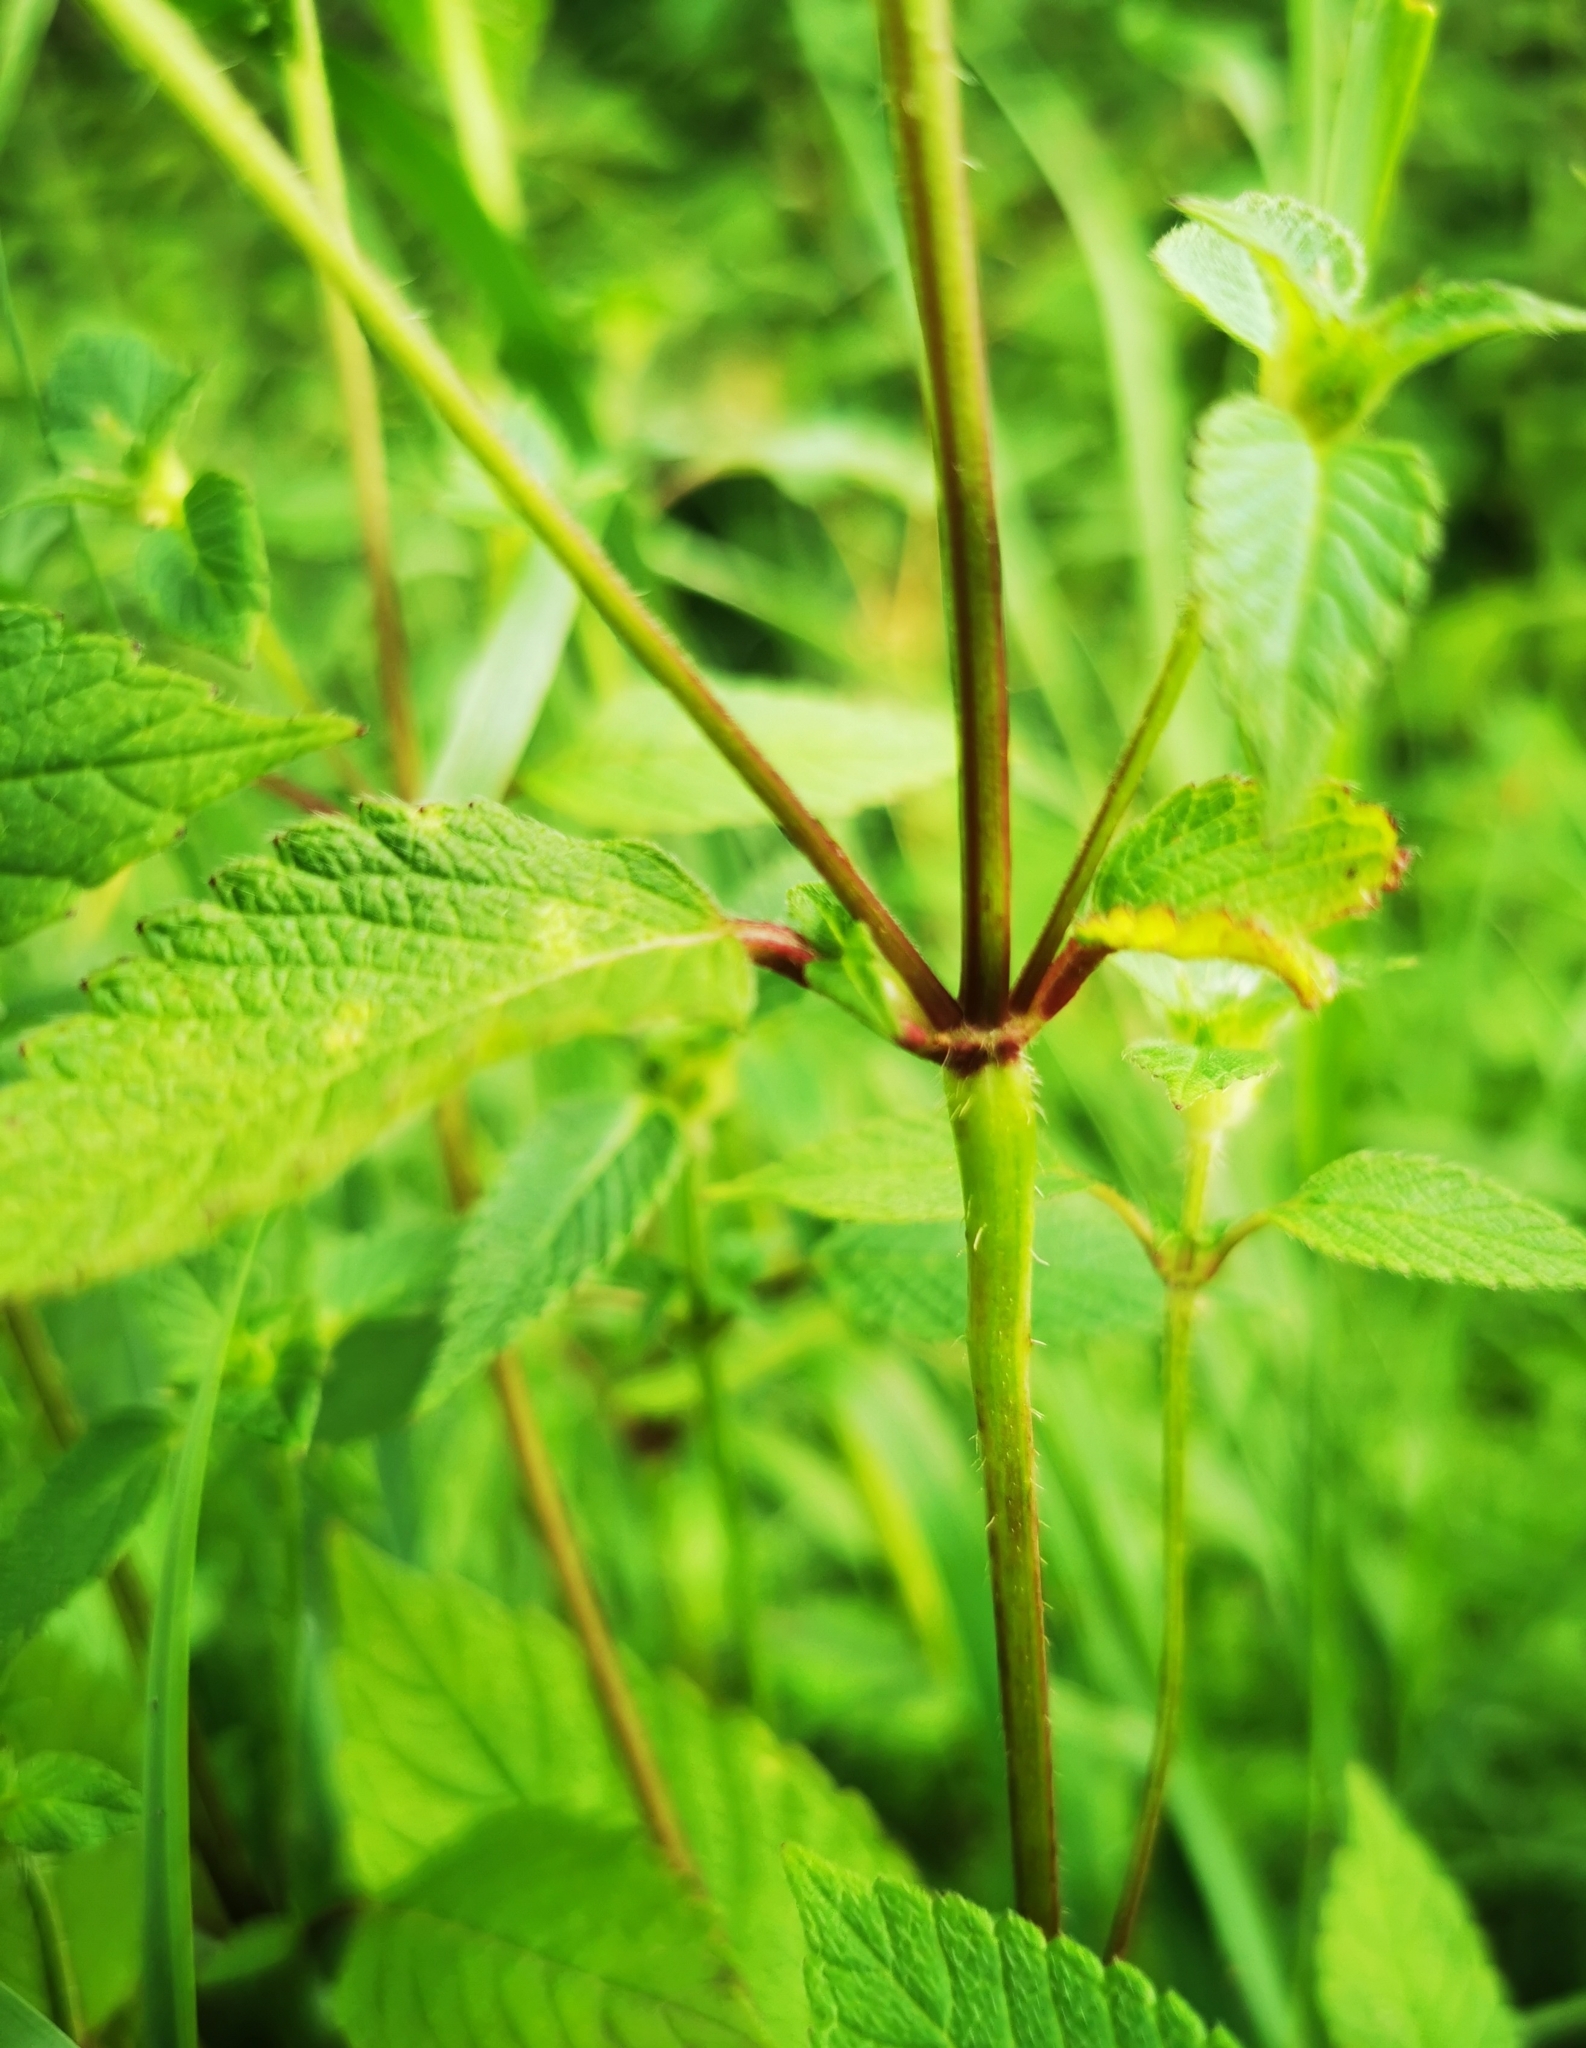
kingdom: Plantae
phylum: Tracheophyta
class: Magnoliopsida
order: Lamiales
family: Lamiaceae
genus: Galeopsis
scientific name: Galeopsis tetrahit
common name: Common hemp-nettle
